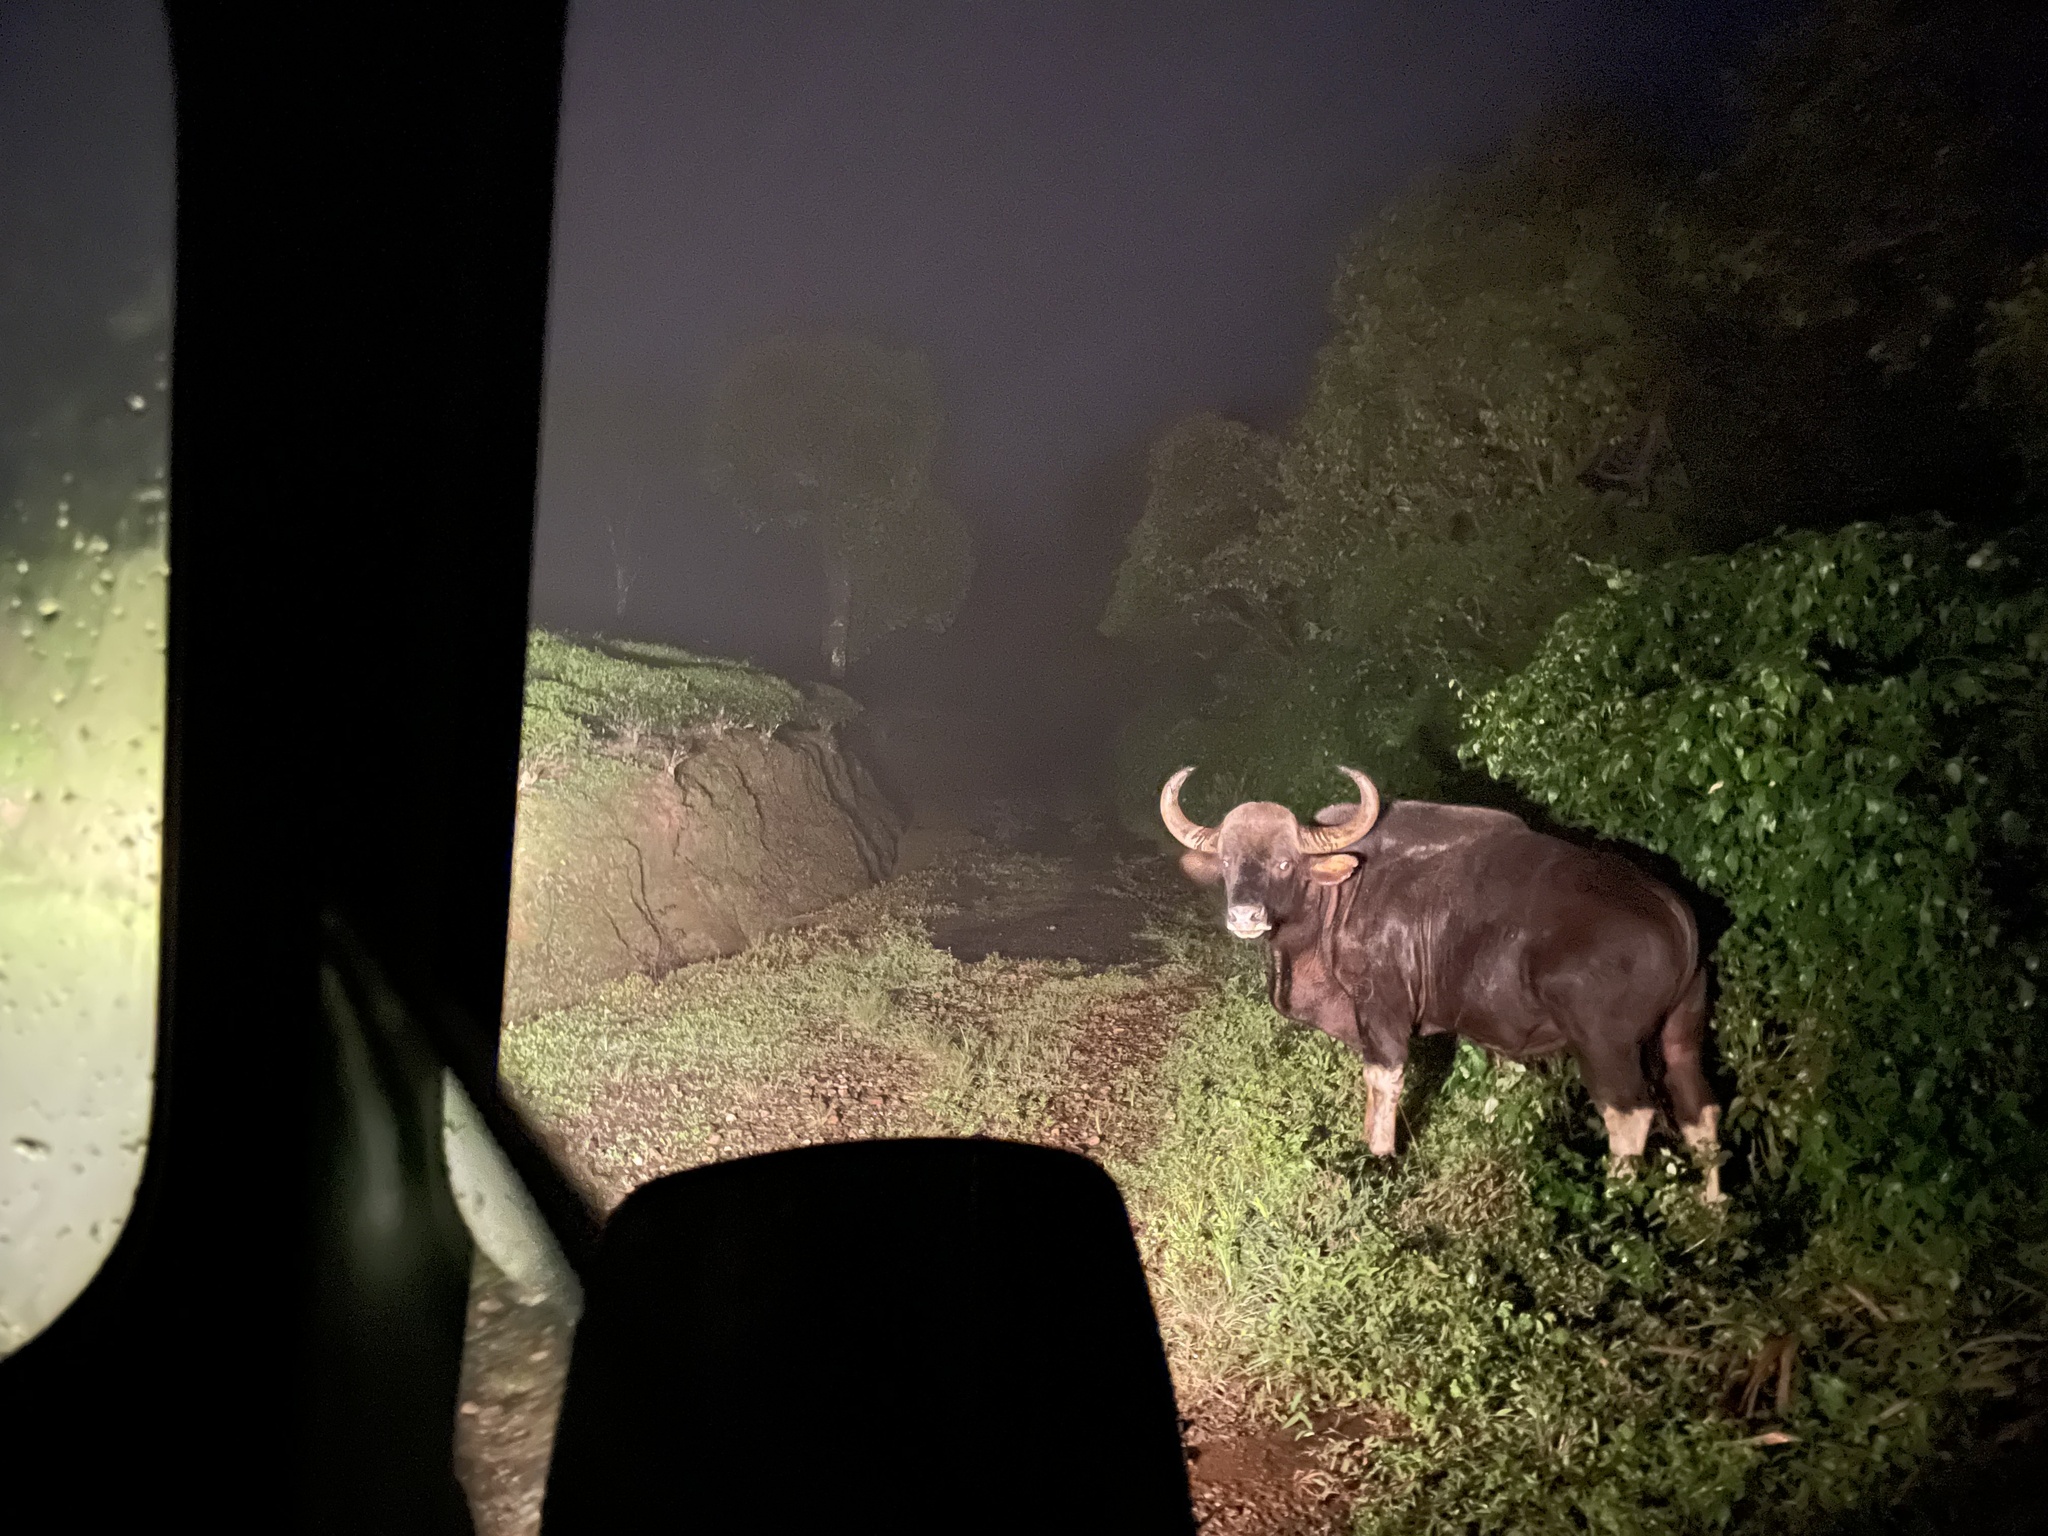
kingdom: Animalia
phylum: Chordata
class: Mammalia
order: Artiodactyla
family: Bovidae
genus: Bos
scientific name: Bos frontalis
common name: Gaur
